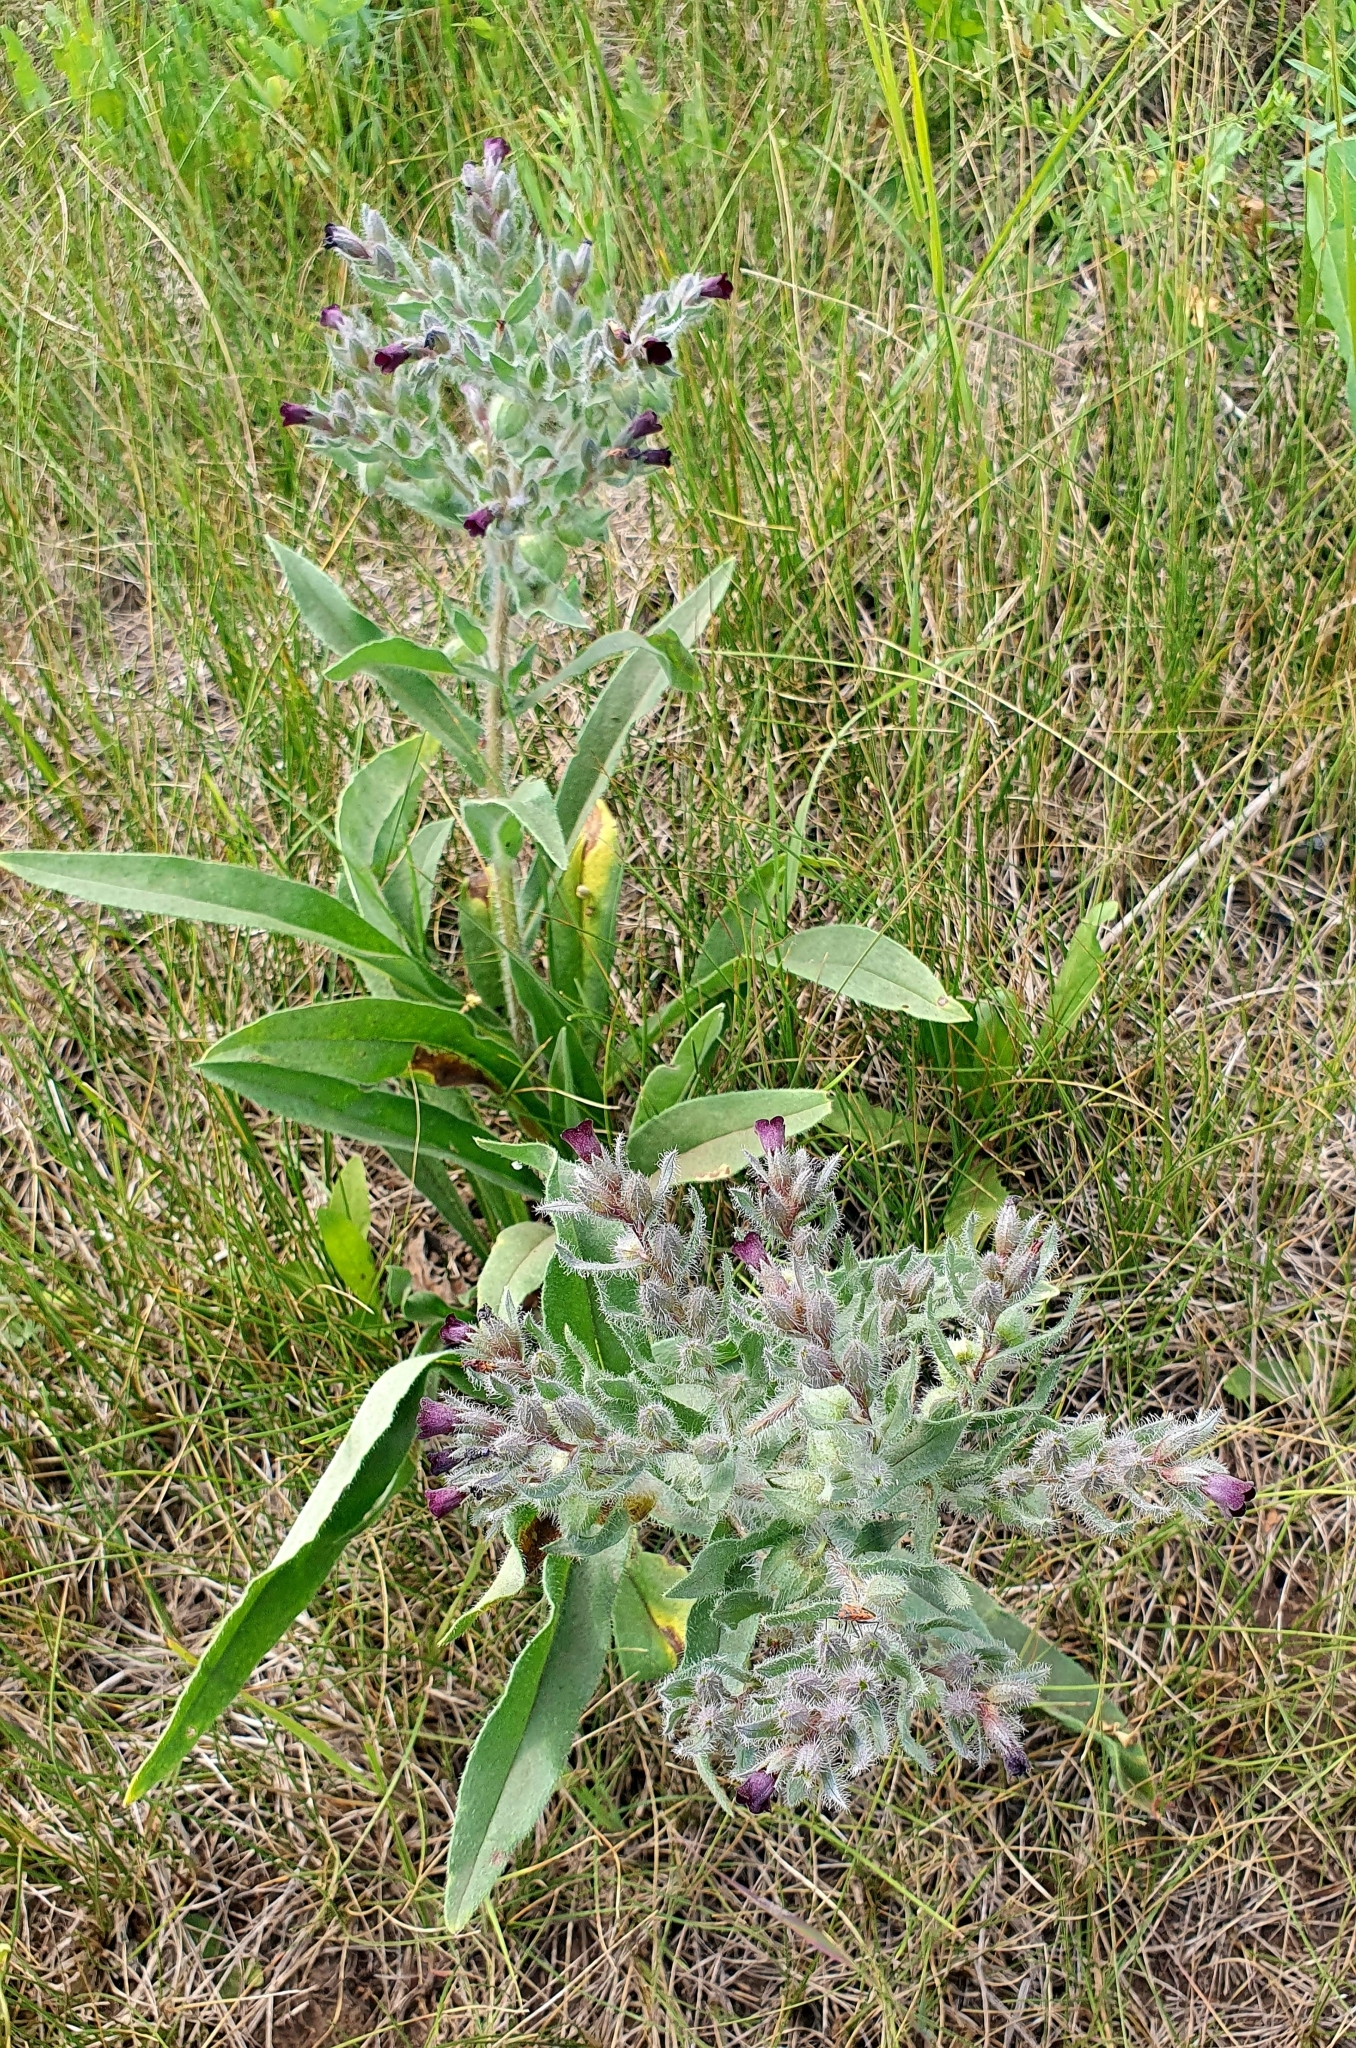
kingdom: Plantae
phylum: Tracheophyta
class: Magnoliopsida
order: Boraginales
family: Boraginaceae
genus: Nonea
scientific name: Nonea pulla
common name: Brown nonea
